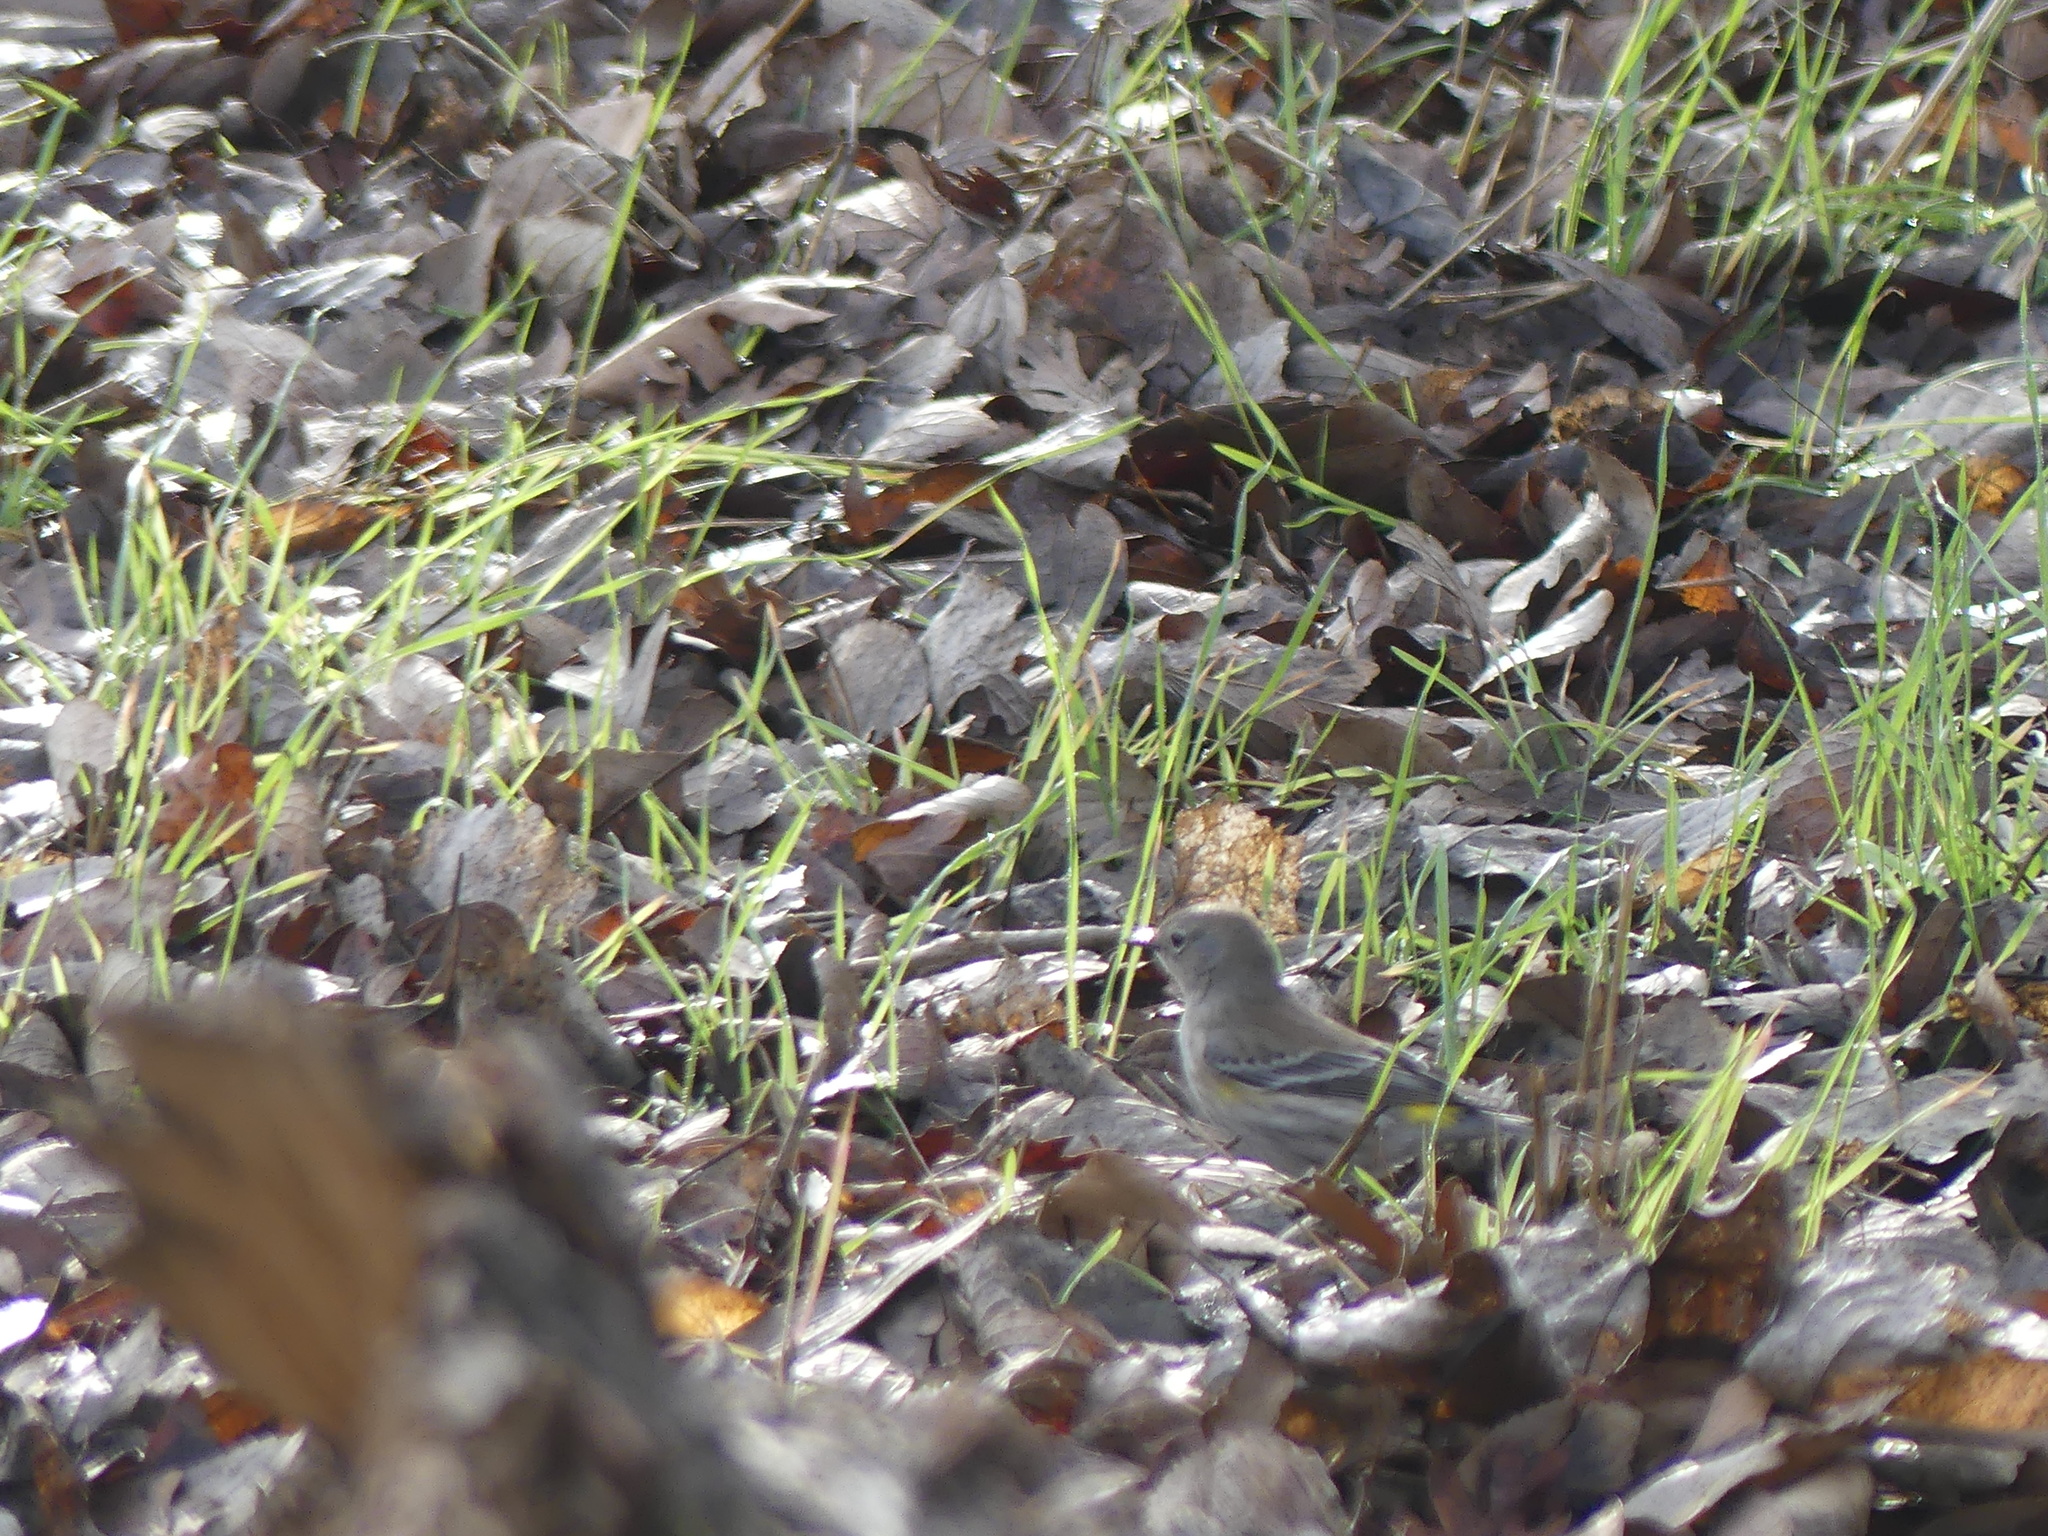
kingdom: Animalia
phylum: Chordata
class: Aves
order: Passeriformes
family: Parulidae
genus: Setophaga
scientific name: Setophaga coronata
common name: Myrtle warbler
